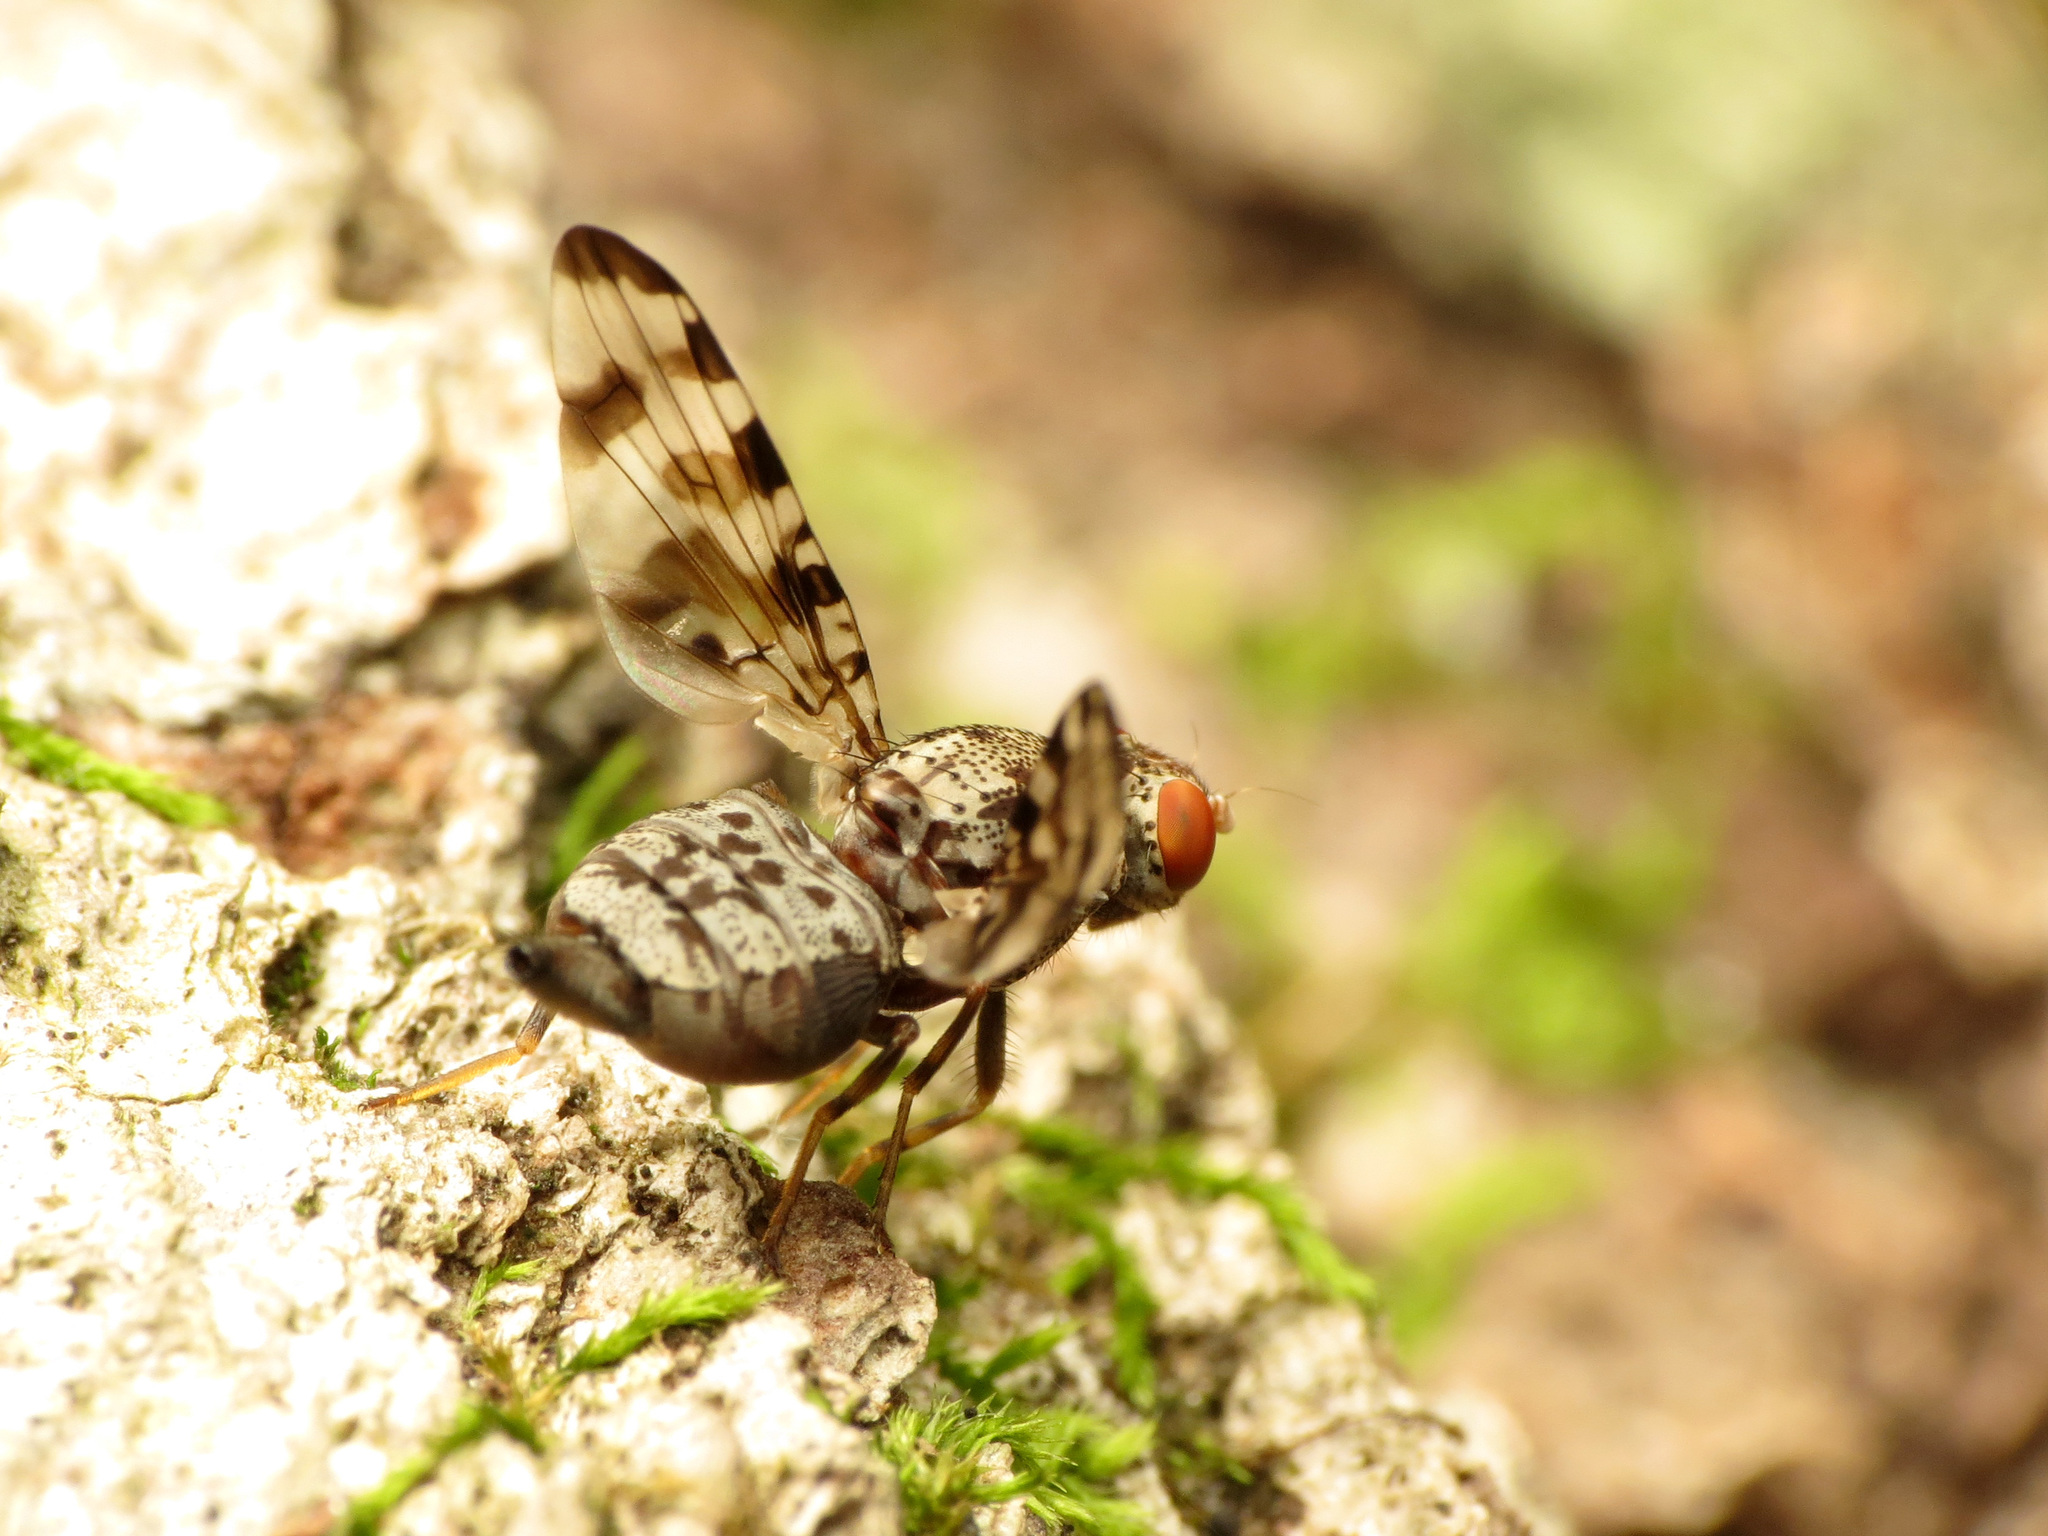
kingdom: Animalia
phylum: Arthropoda
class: Insecta
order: Diptera
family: Ulidiidae
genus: Pseudotephritis
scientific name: Pseudotephritis approximata
